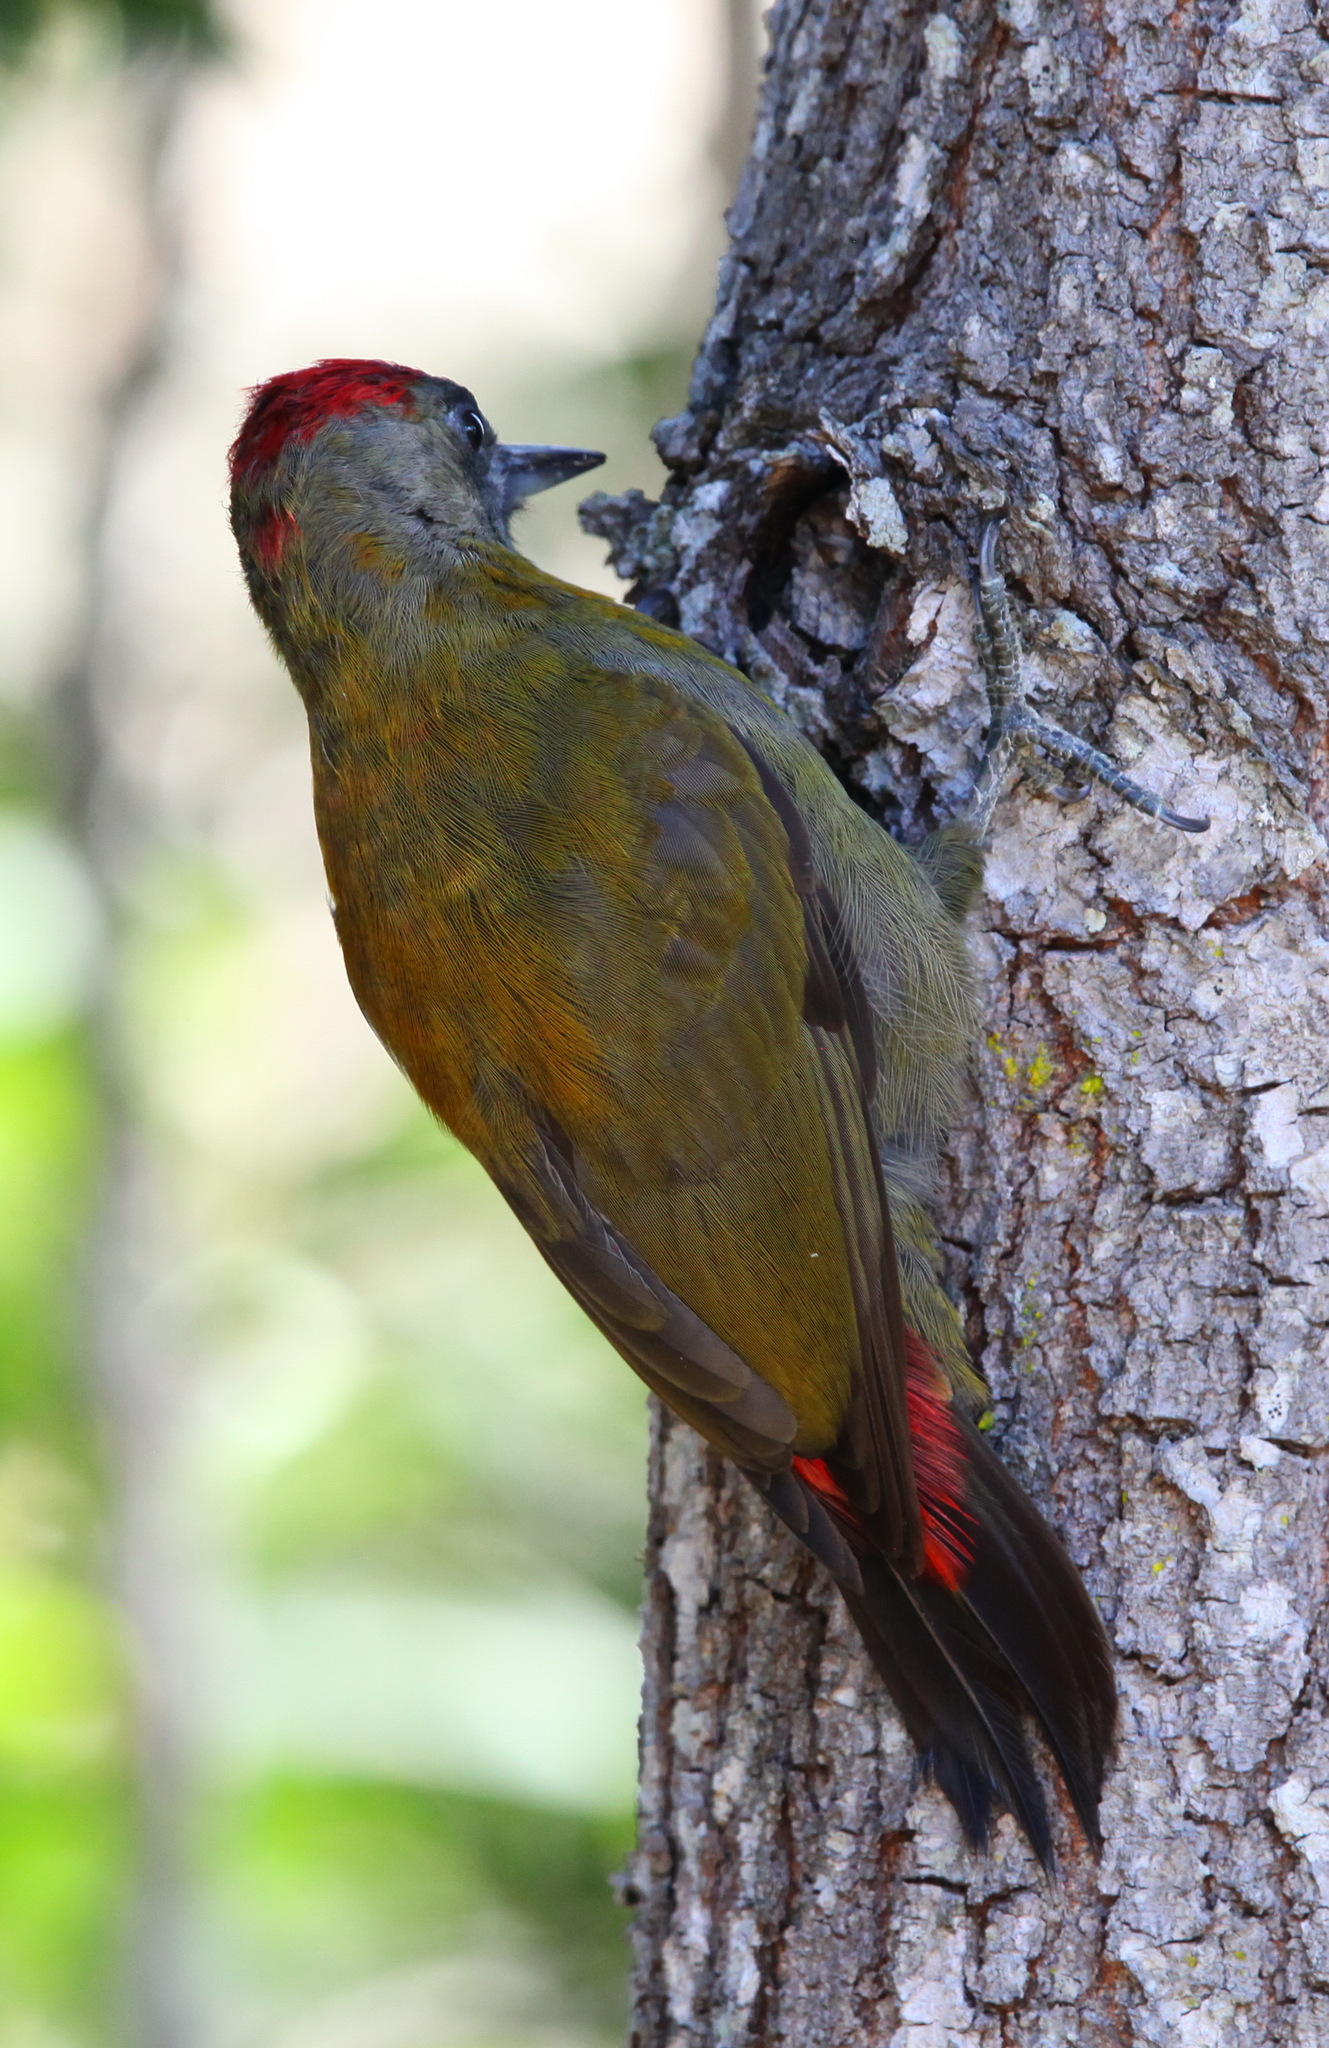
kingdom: Animalia
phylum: Chordata
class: Aves
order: Piciformes
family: Picidae
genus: Dendropicos
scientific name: Dendropicos griseocephalus
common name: Olive woodpecker
